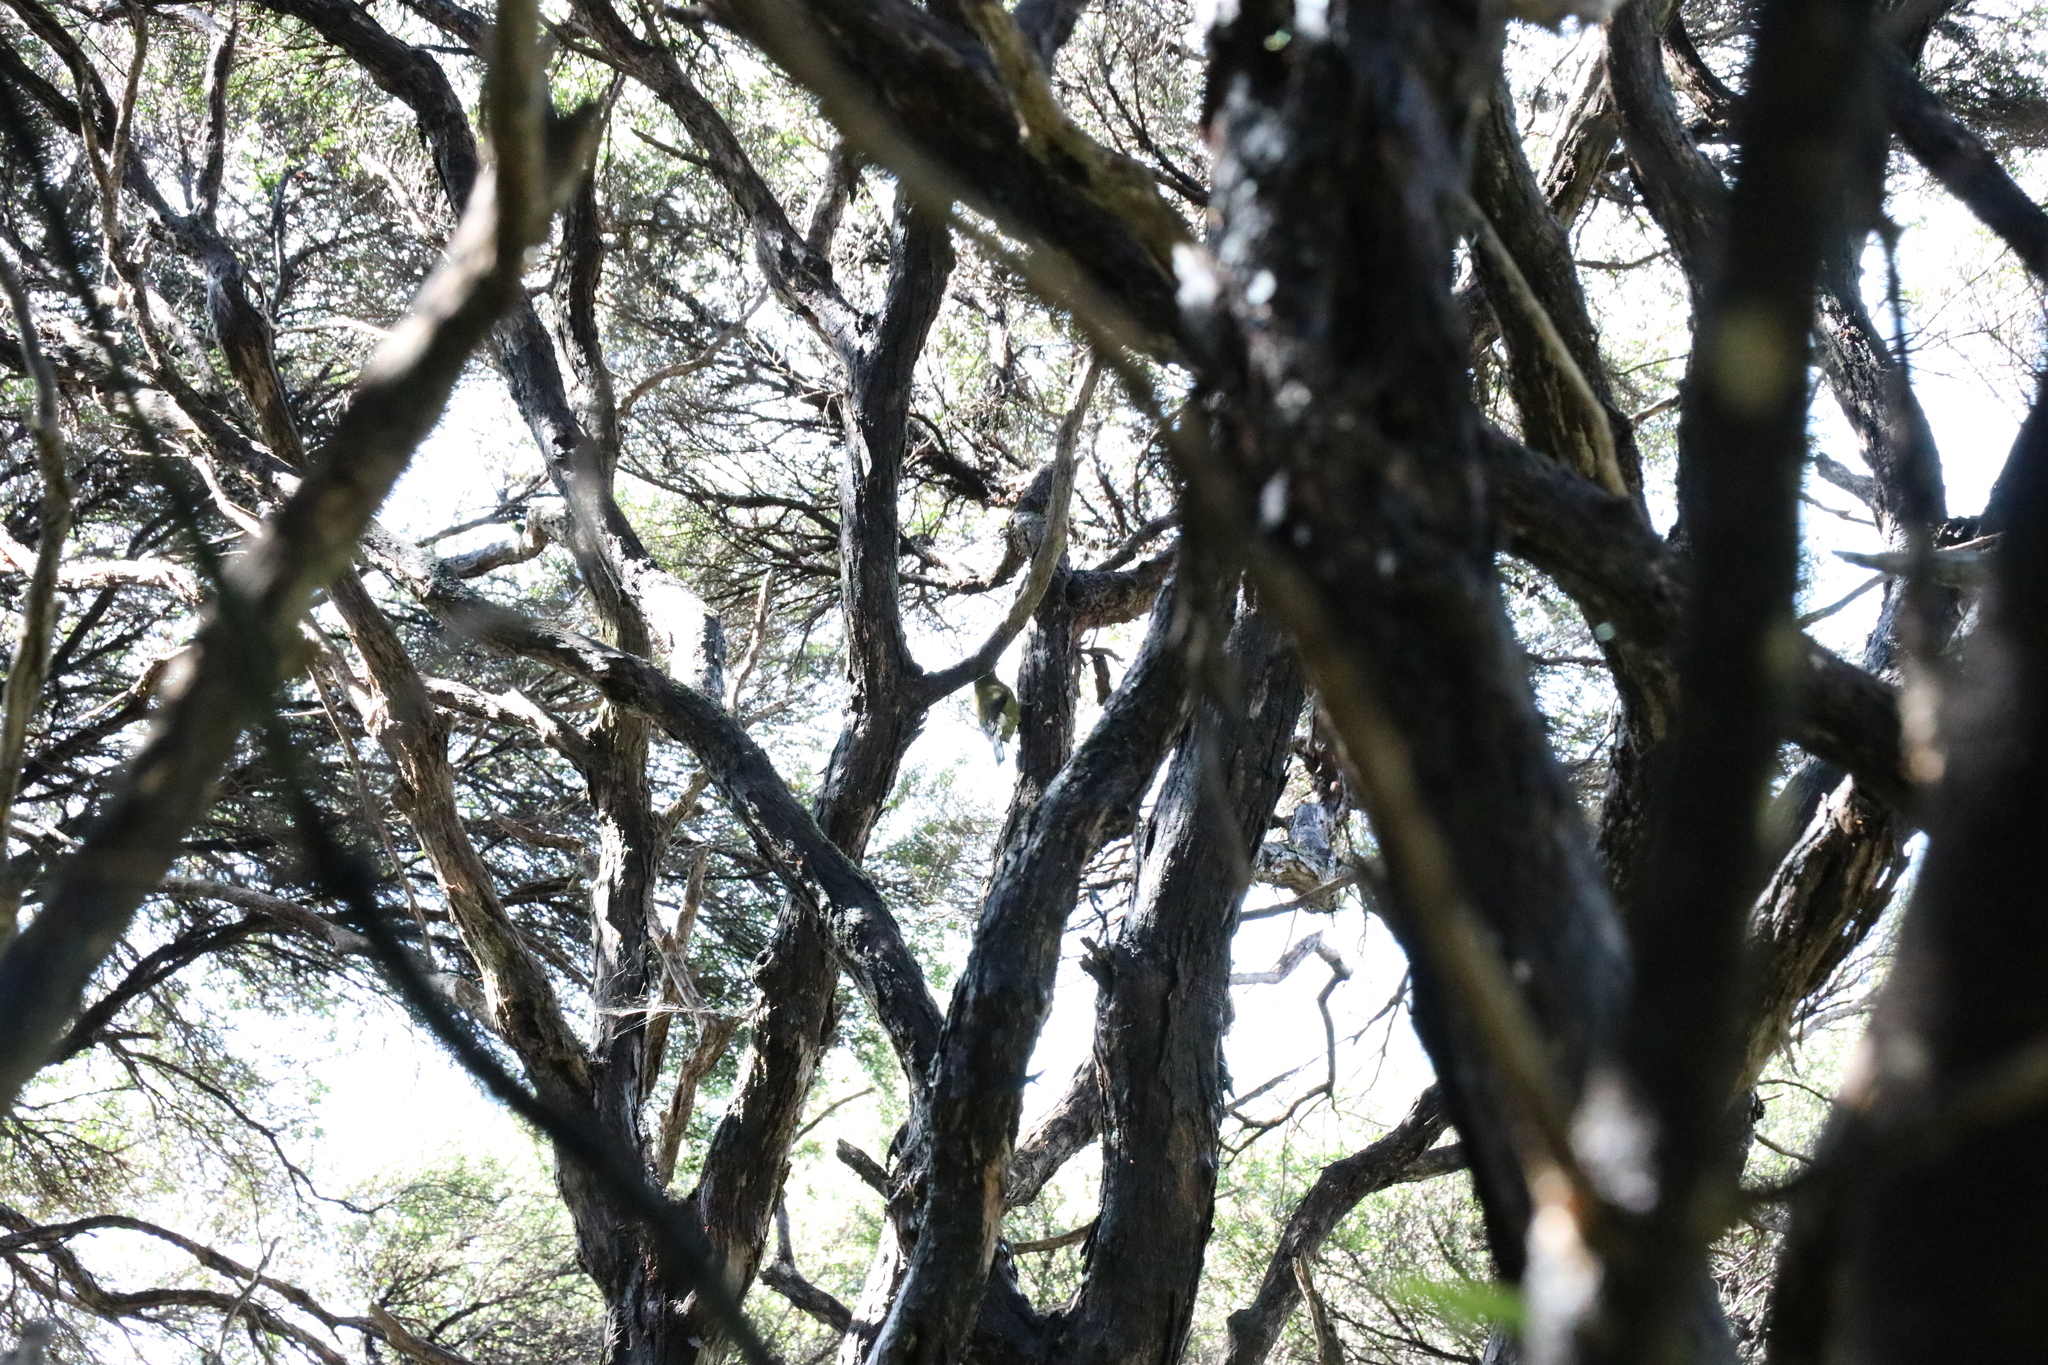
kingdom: Animalia
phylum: Chordata
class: Aves
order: Passeriformes
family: Meliphagidae
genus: Anthornis
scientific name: Anthornis melanura
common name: New zealand bellbird
